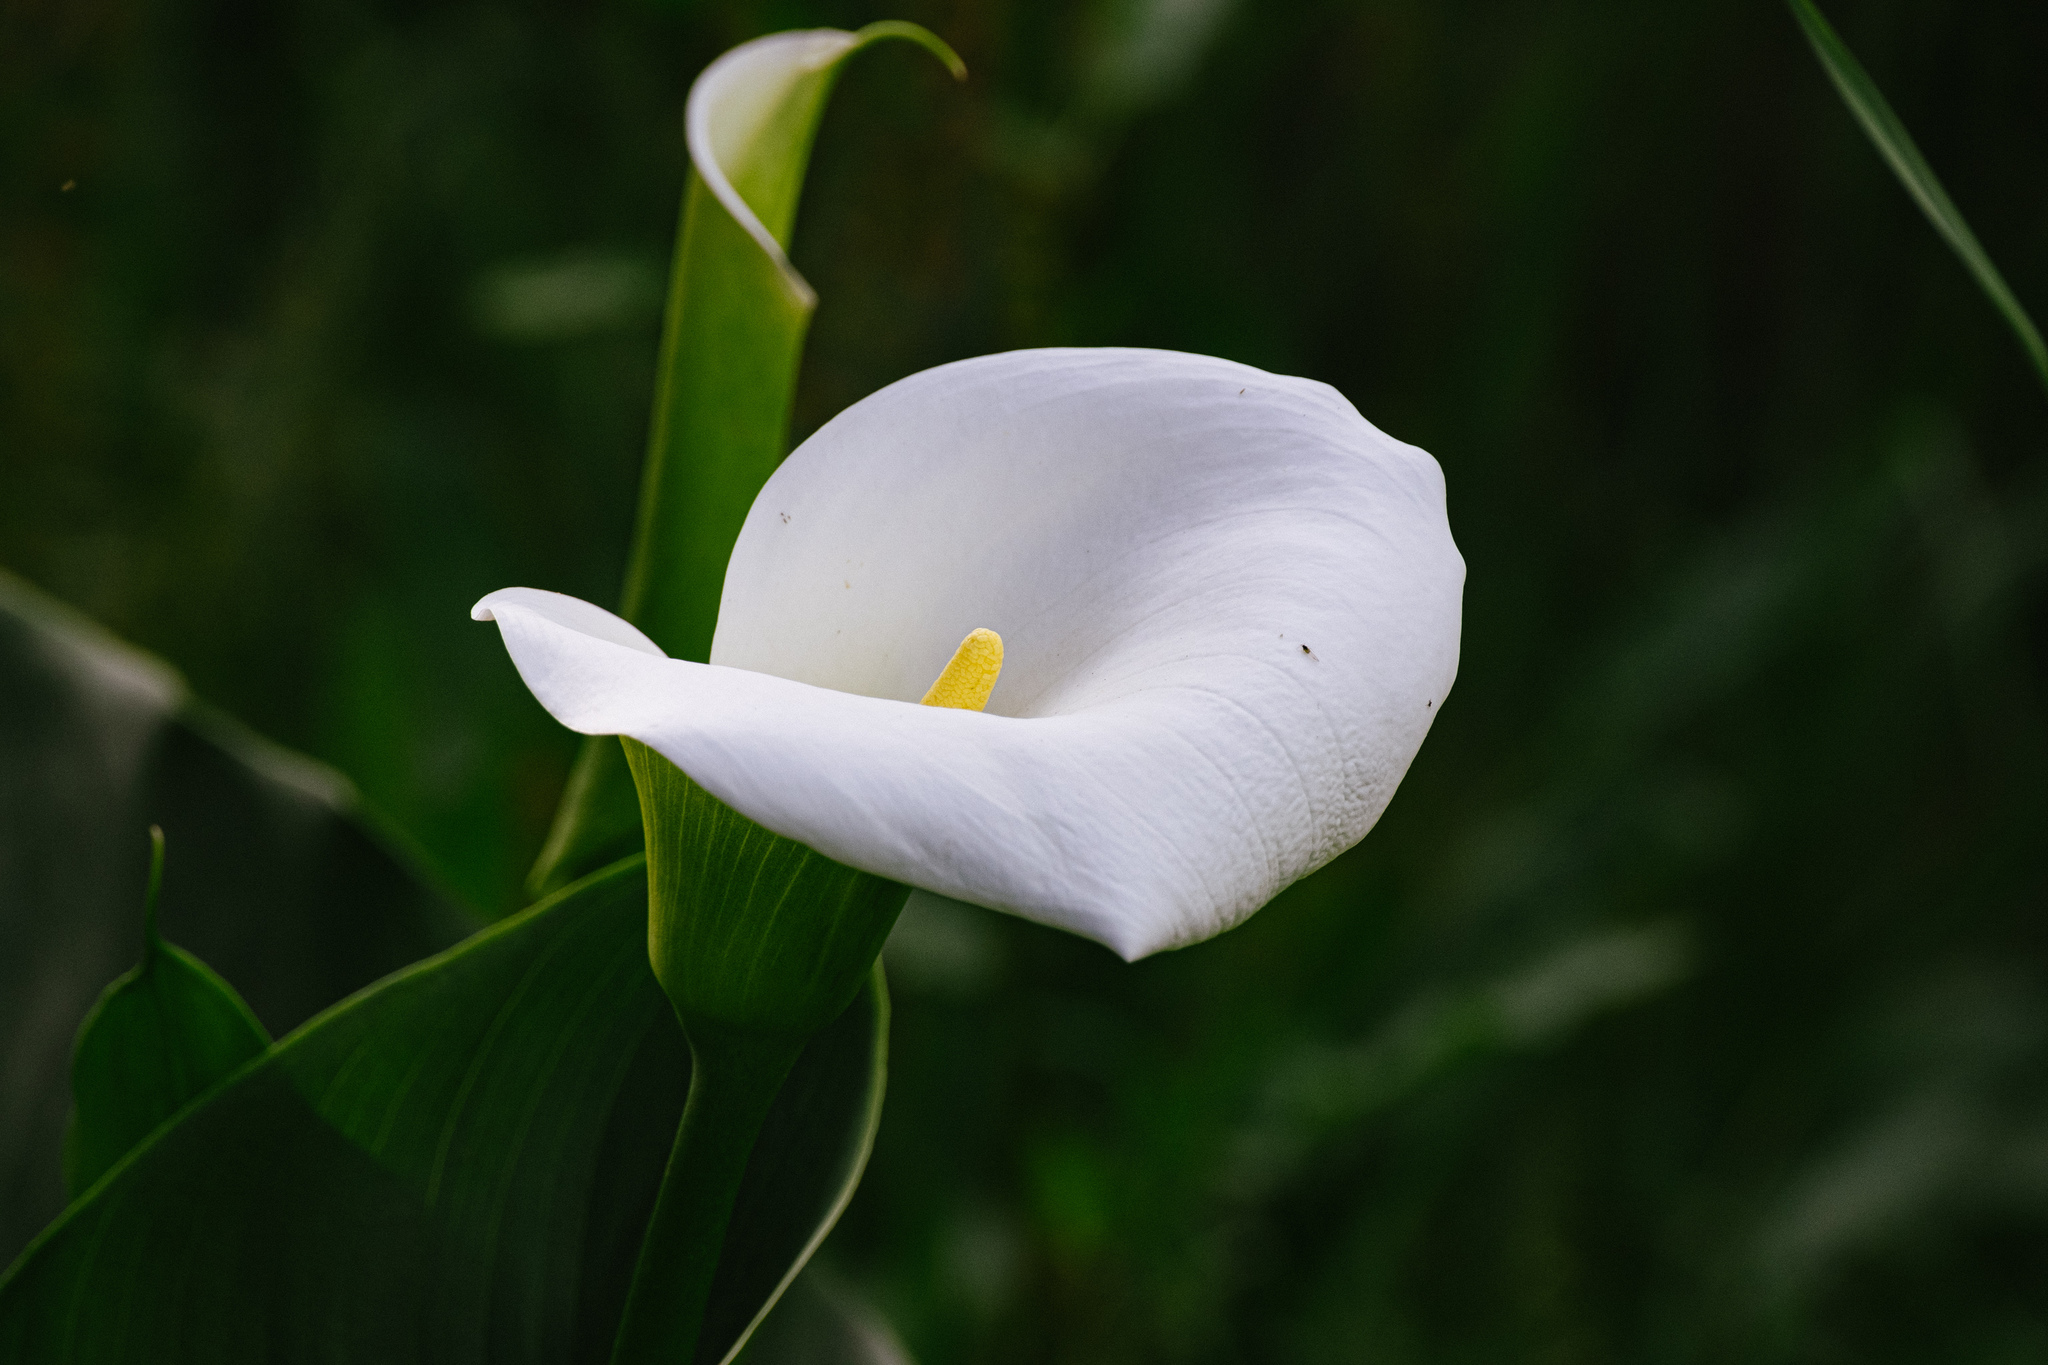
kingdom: Plantae
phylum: Tracheophyta
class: Liliopsida
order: Alismatales
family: Araceae
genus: Zantedeschia
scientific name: Zantedeschia aethiopica
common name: Altar-lily
